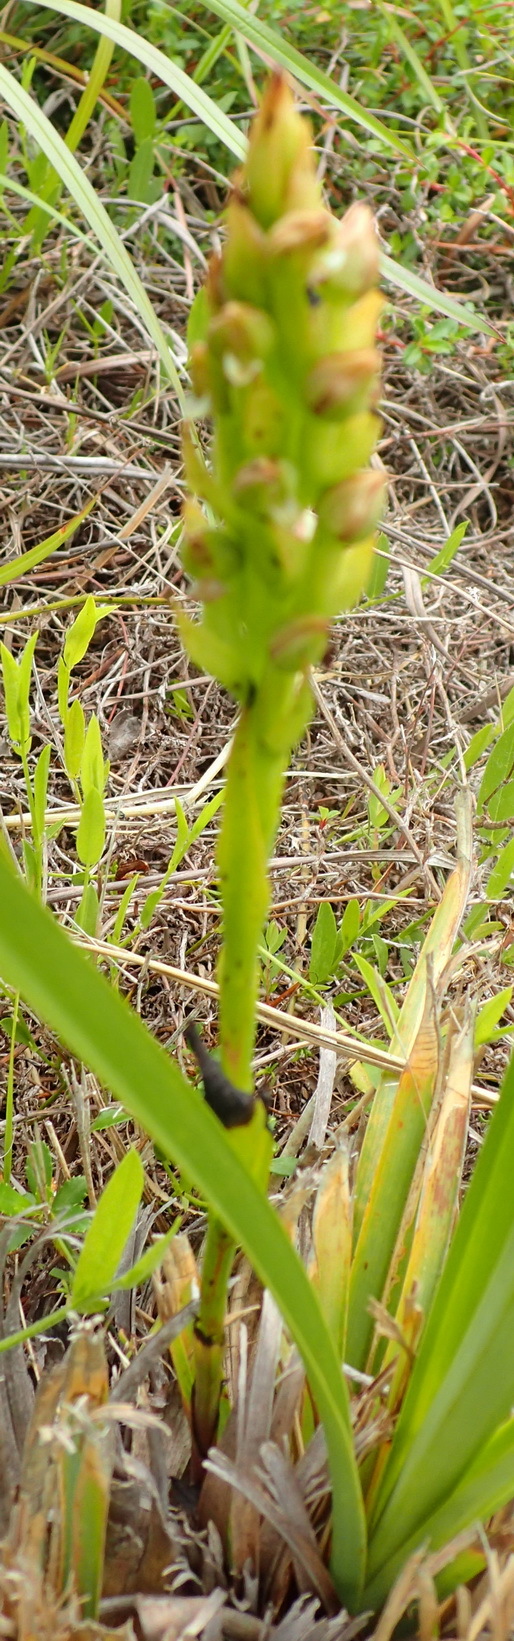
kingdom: Plantae
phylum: Tracheophyta
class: Liliopsida
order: Asparagales
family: Orchidaceae
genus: Brachycorythis
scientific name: Brachycorythis mac-owaniana
